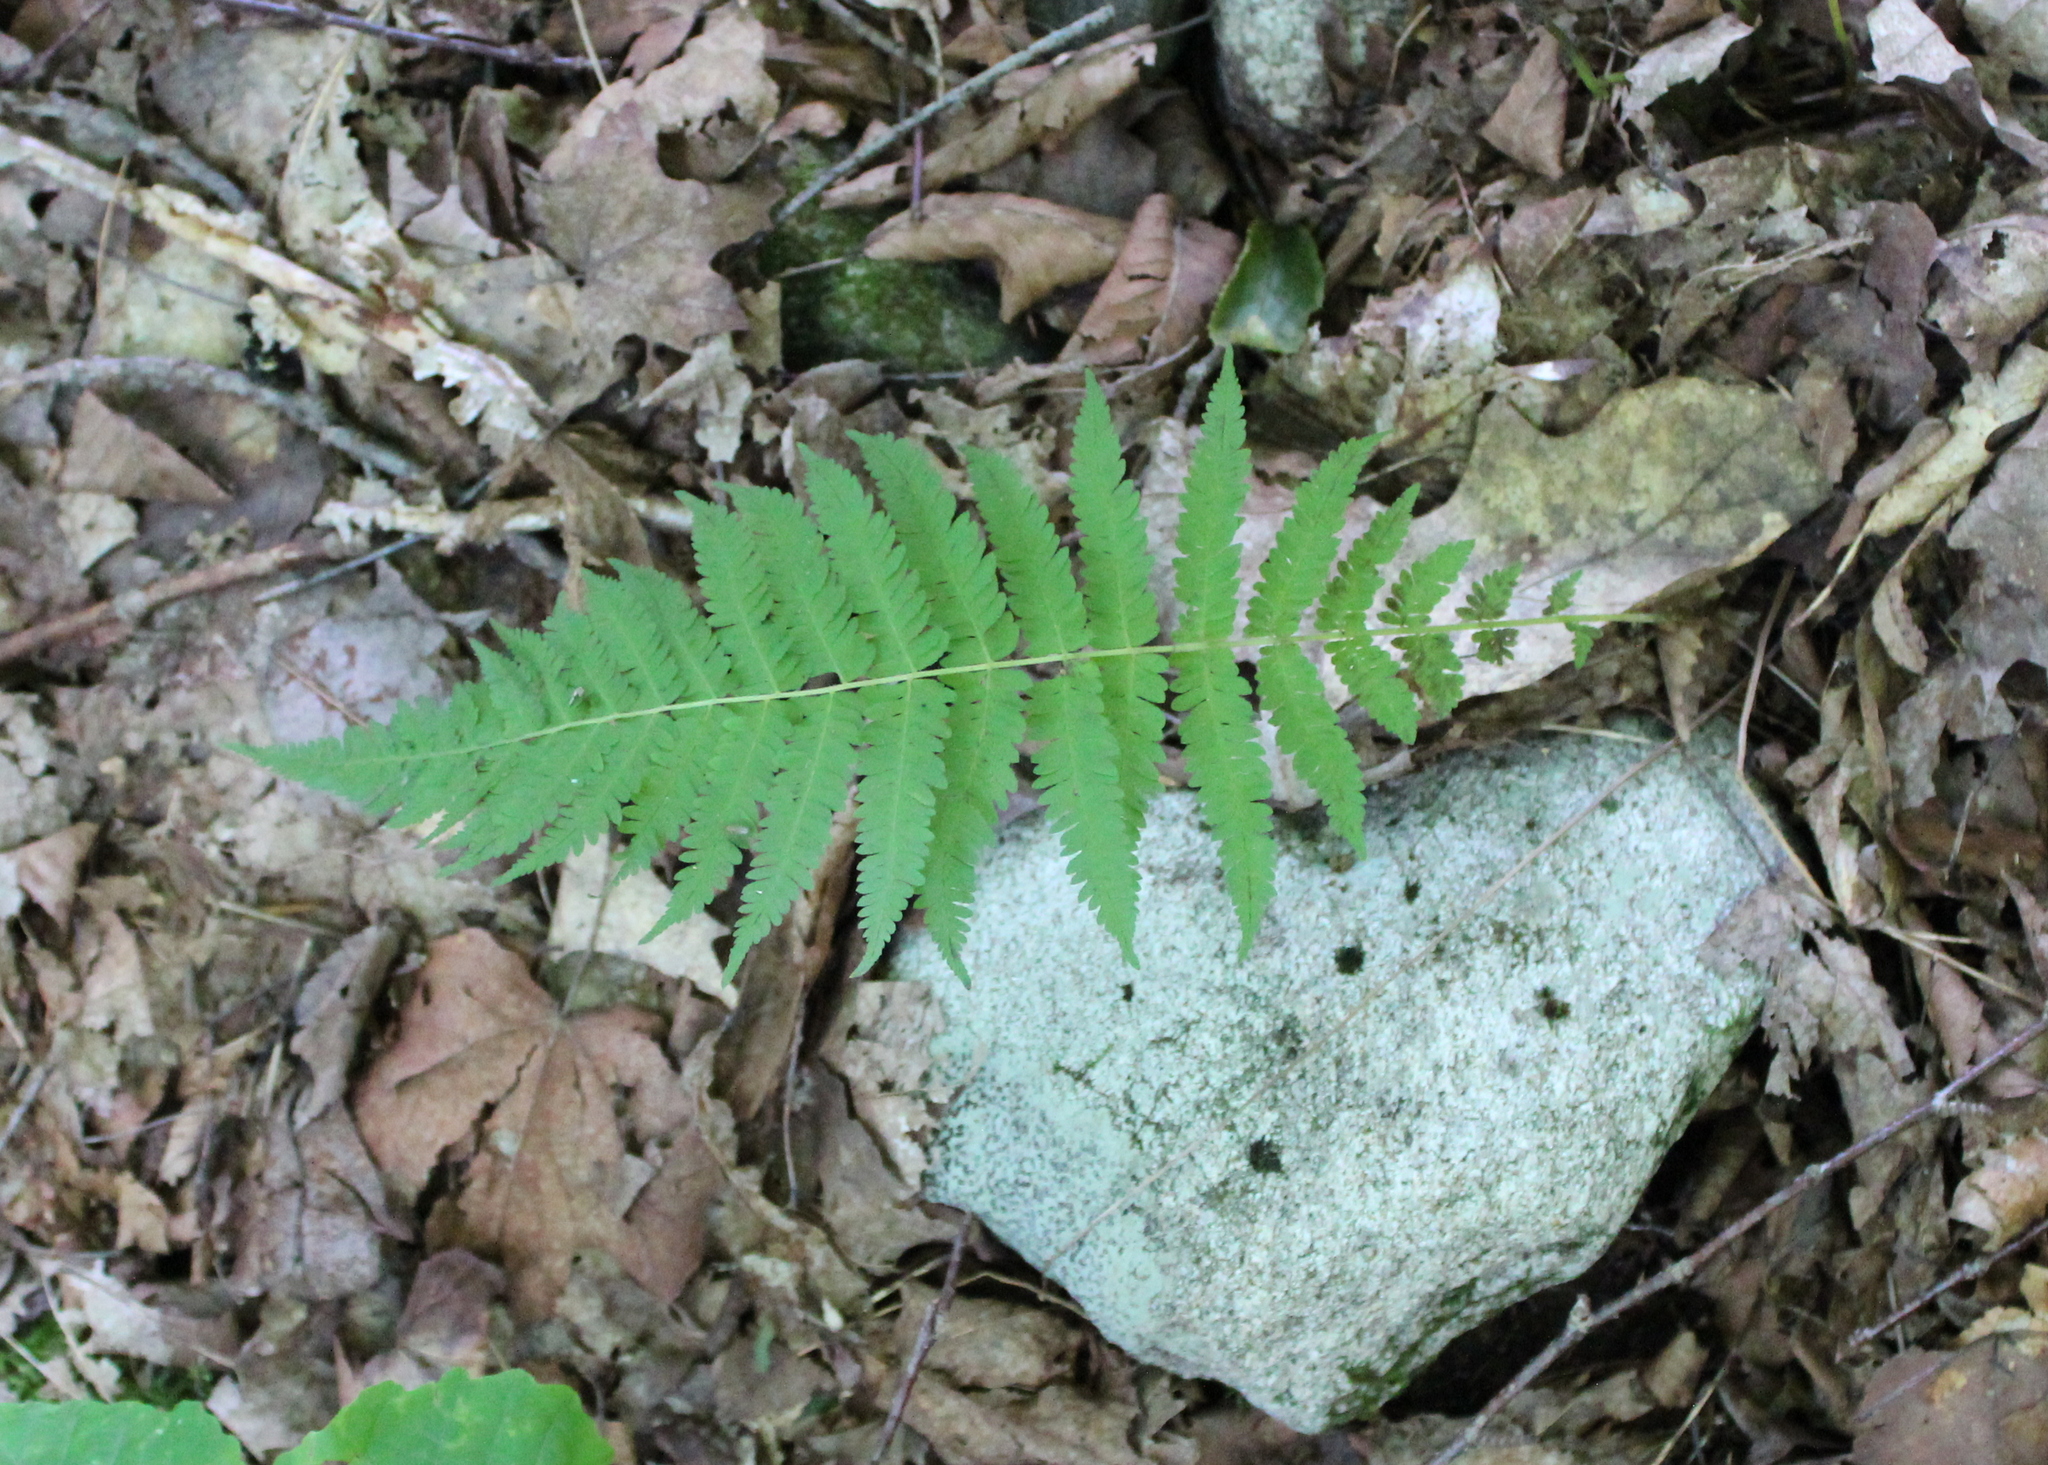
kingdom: Plantae
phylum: Tracheophyta
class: Polypodiopsida
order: Polypodiales
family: Thelypteridaceae
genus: Amauropelta
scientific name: Amauropelta noveboracensis
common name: New york fern
